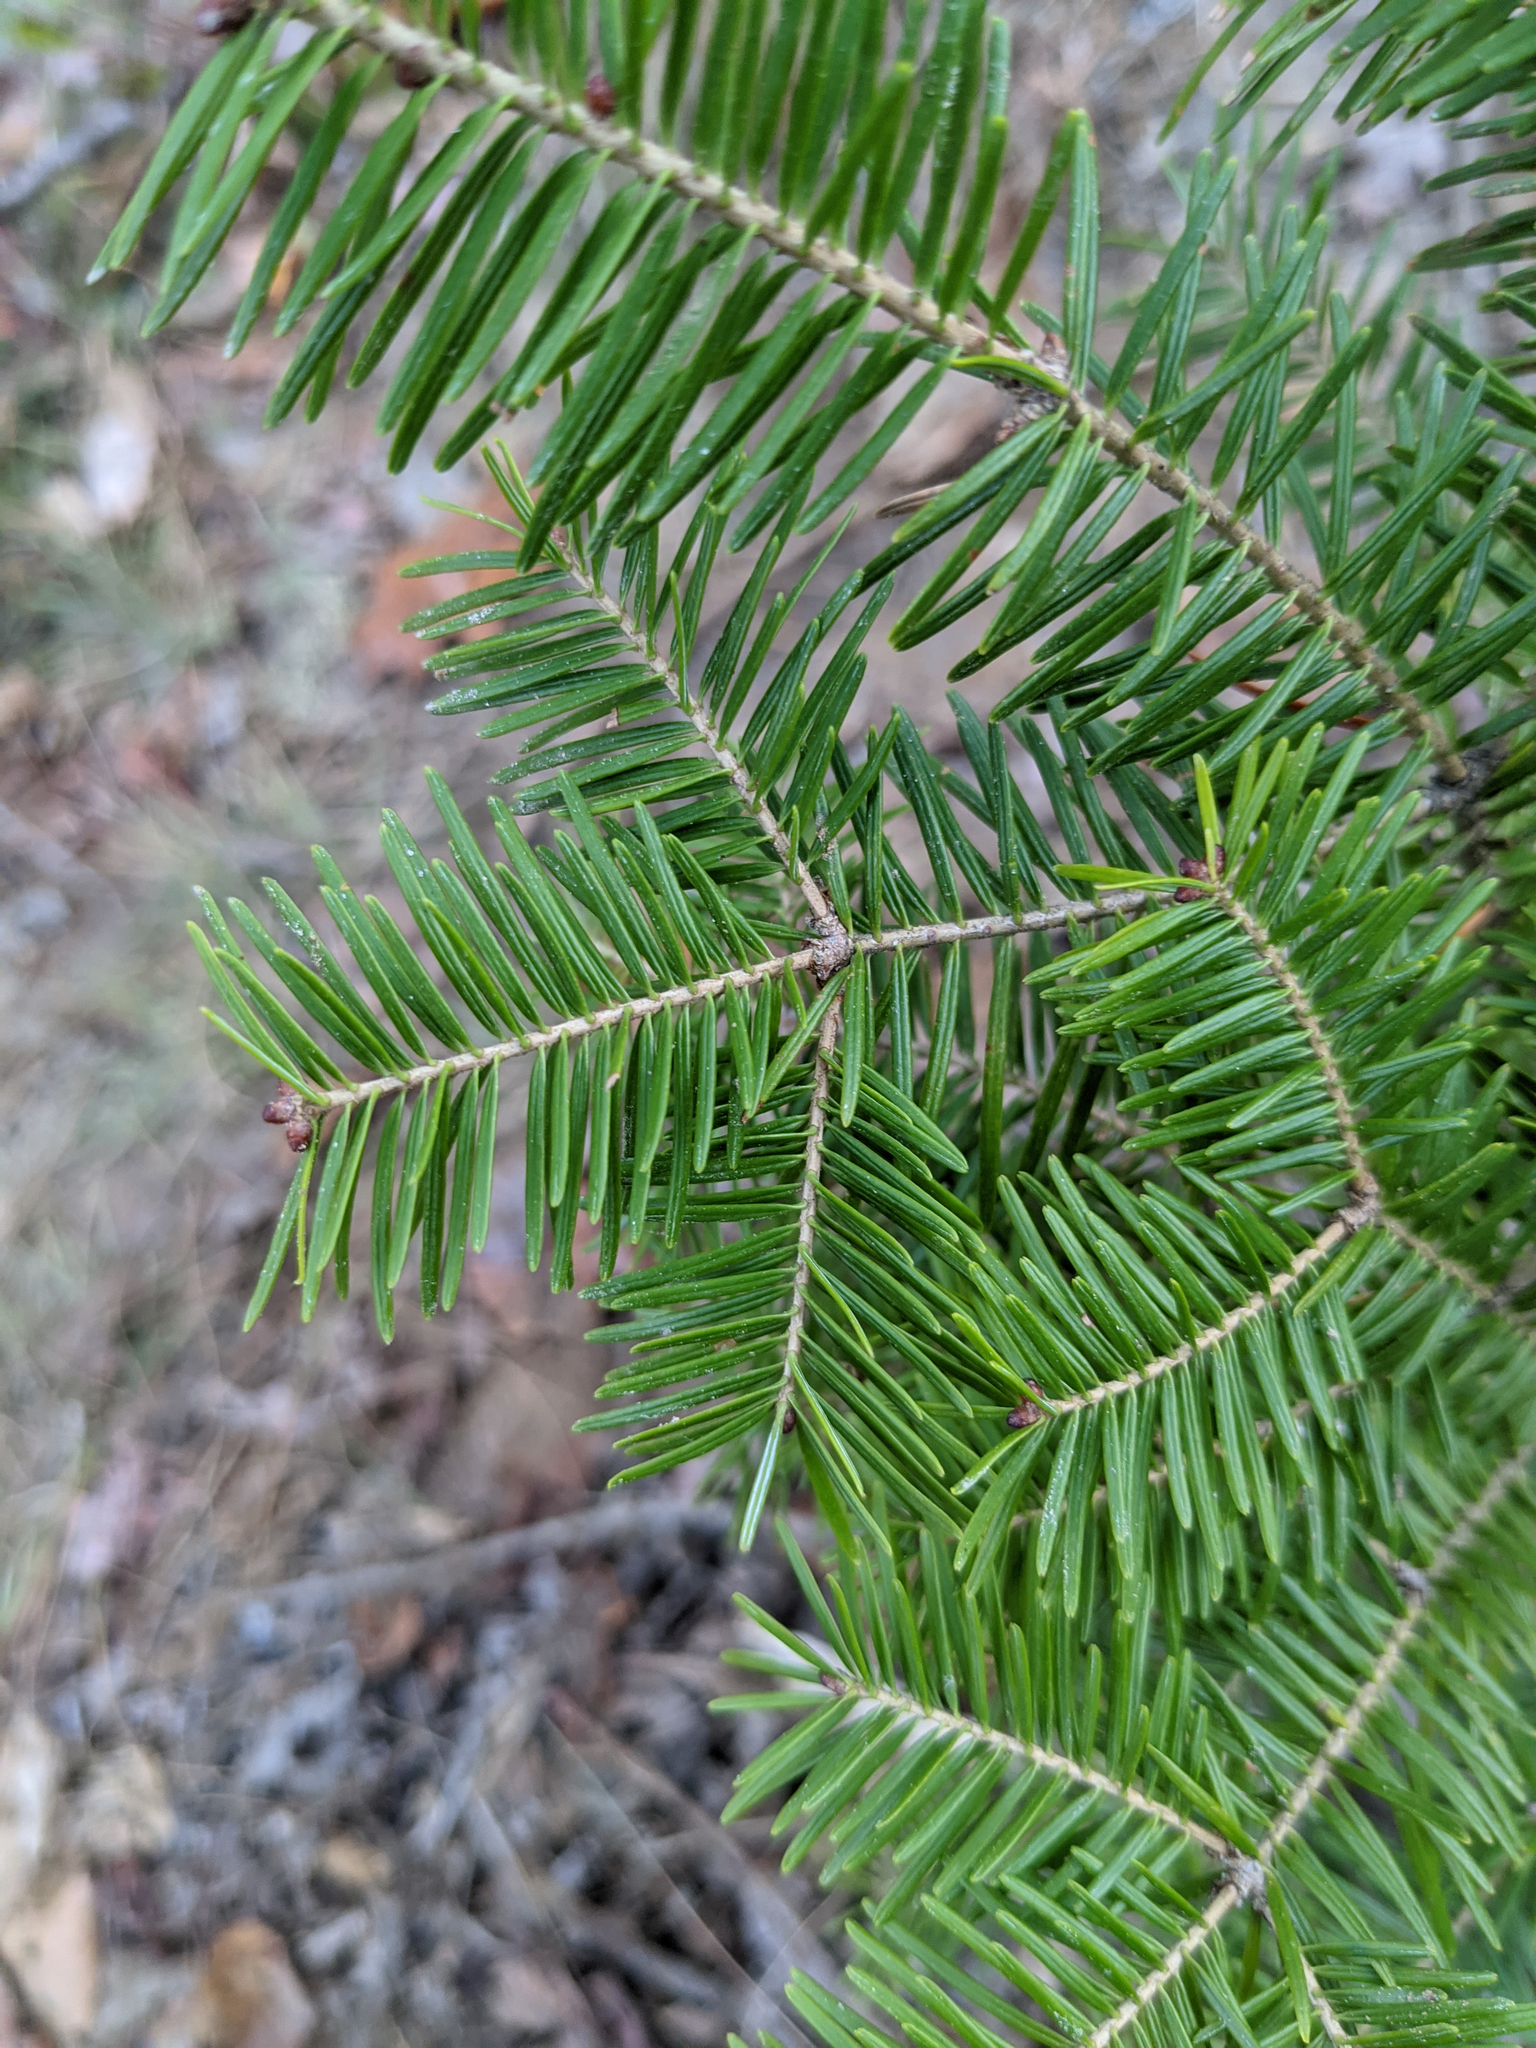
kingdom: Plantae
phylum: Tracheophyta
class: Pinopsida
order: Pinales
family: Pinaceae
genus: Abies
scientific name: Abies balsamea
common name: Balsam fir
